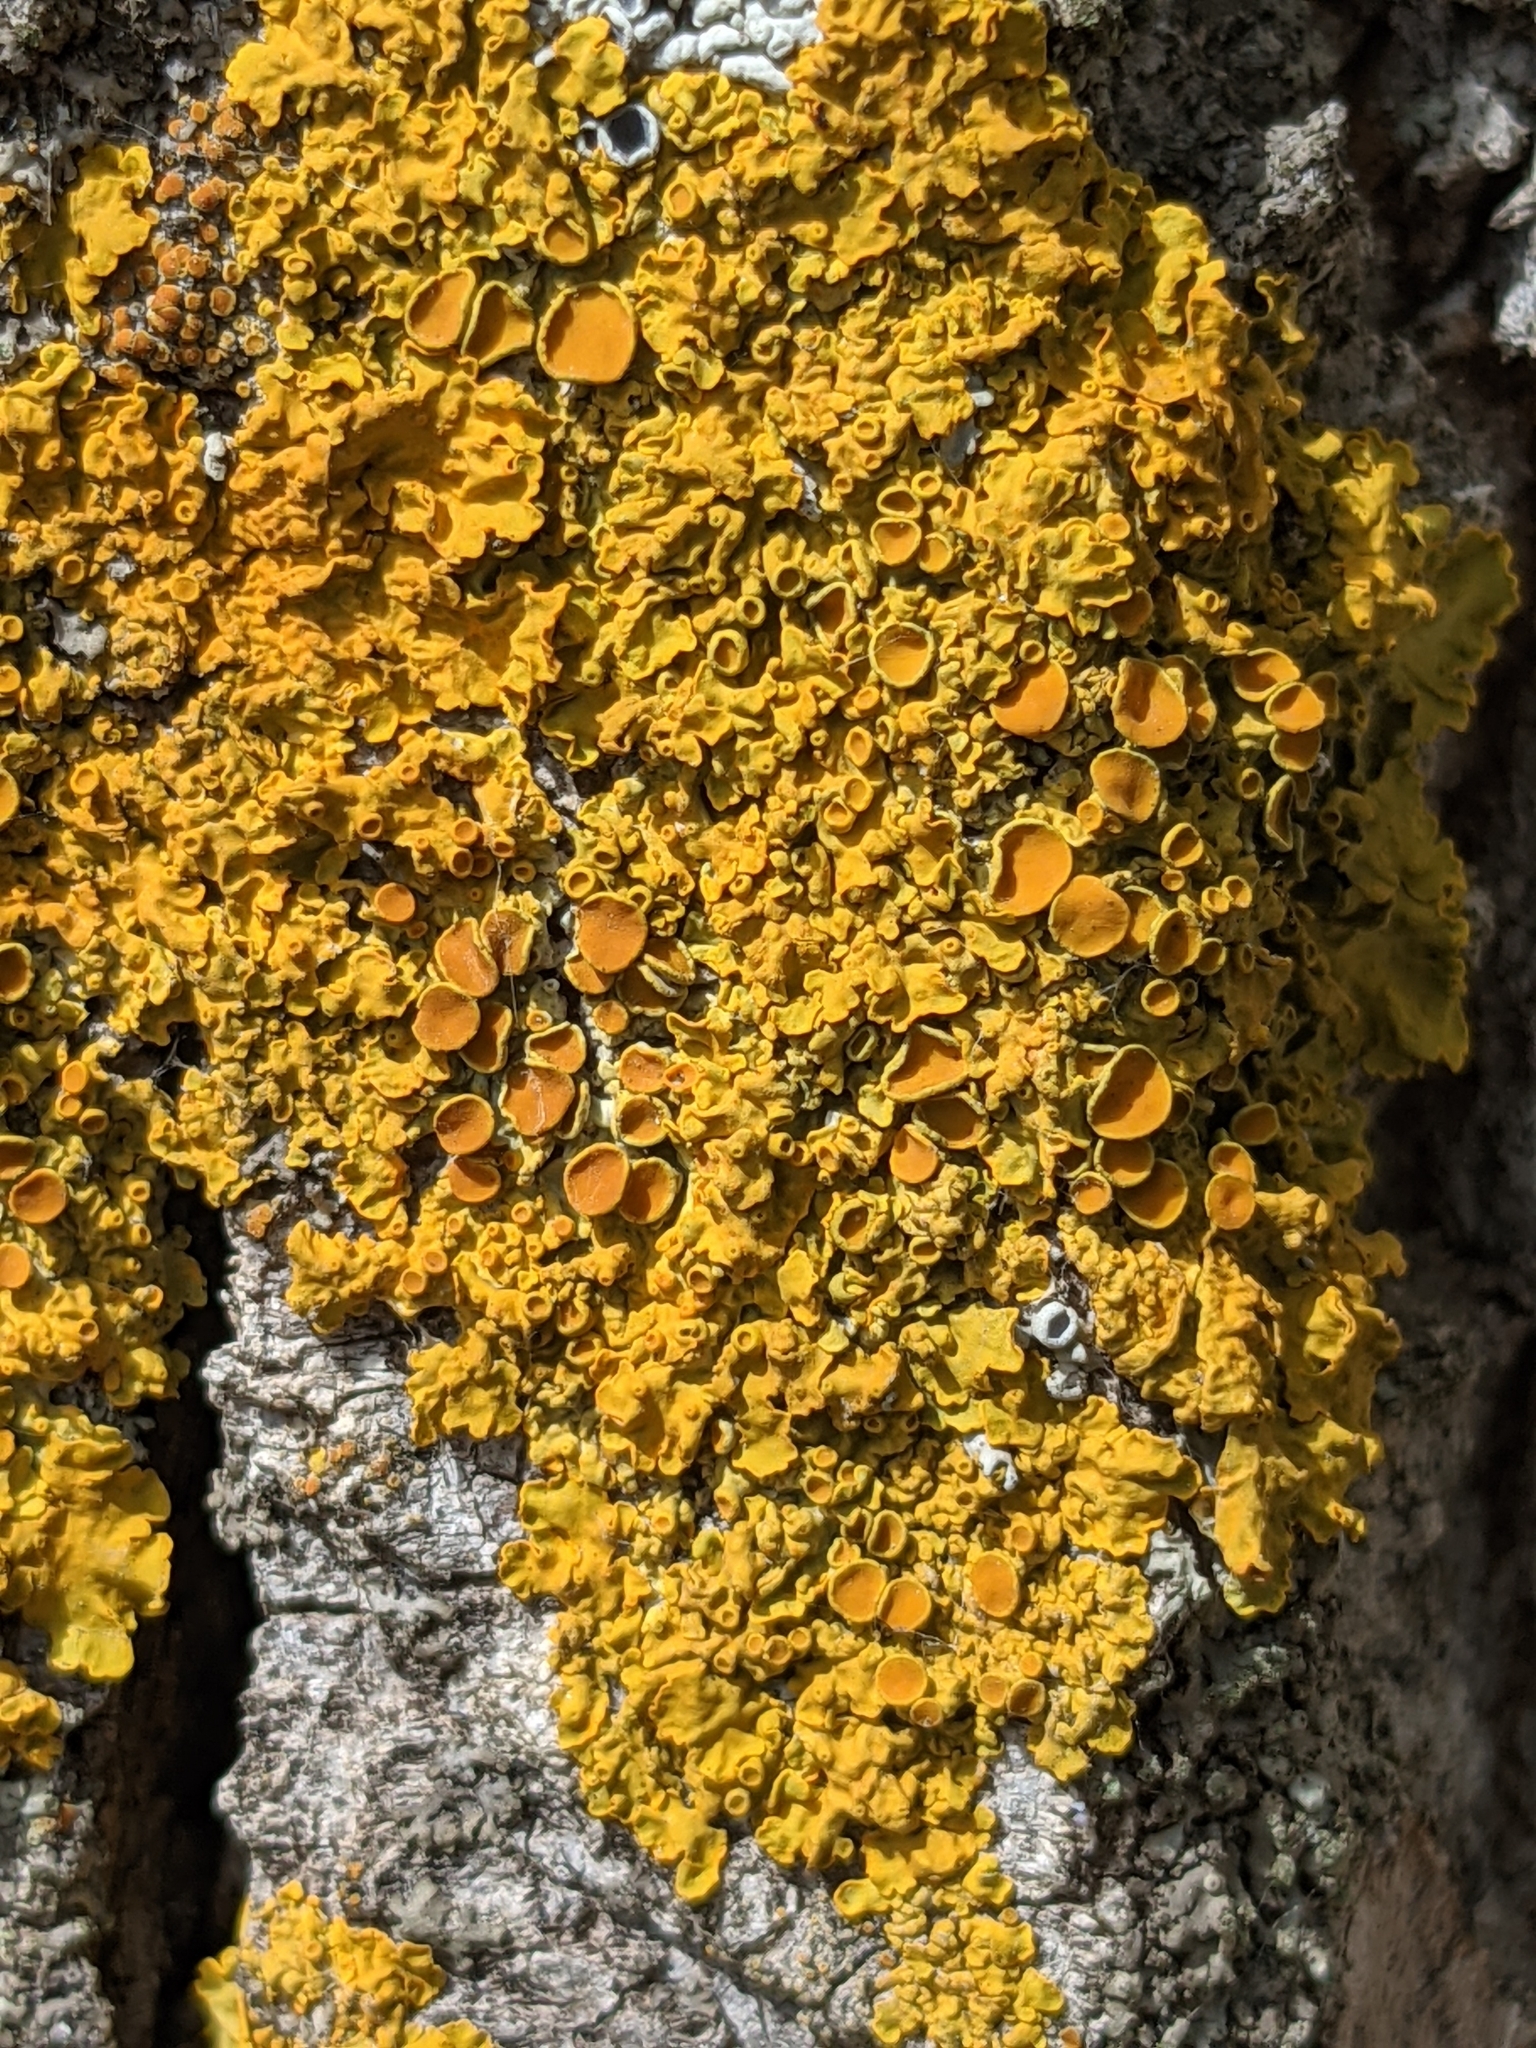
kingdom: Fungi
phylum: Ascomycota
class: Lecanoromycetes
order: Teloschistales
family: Teloschistaceae
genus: Xanthoria
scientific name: Xanthoria parietina
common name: Common orange lichen
